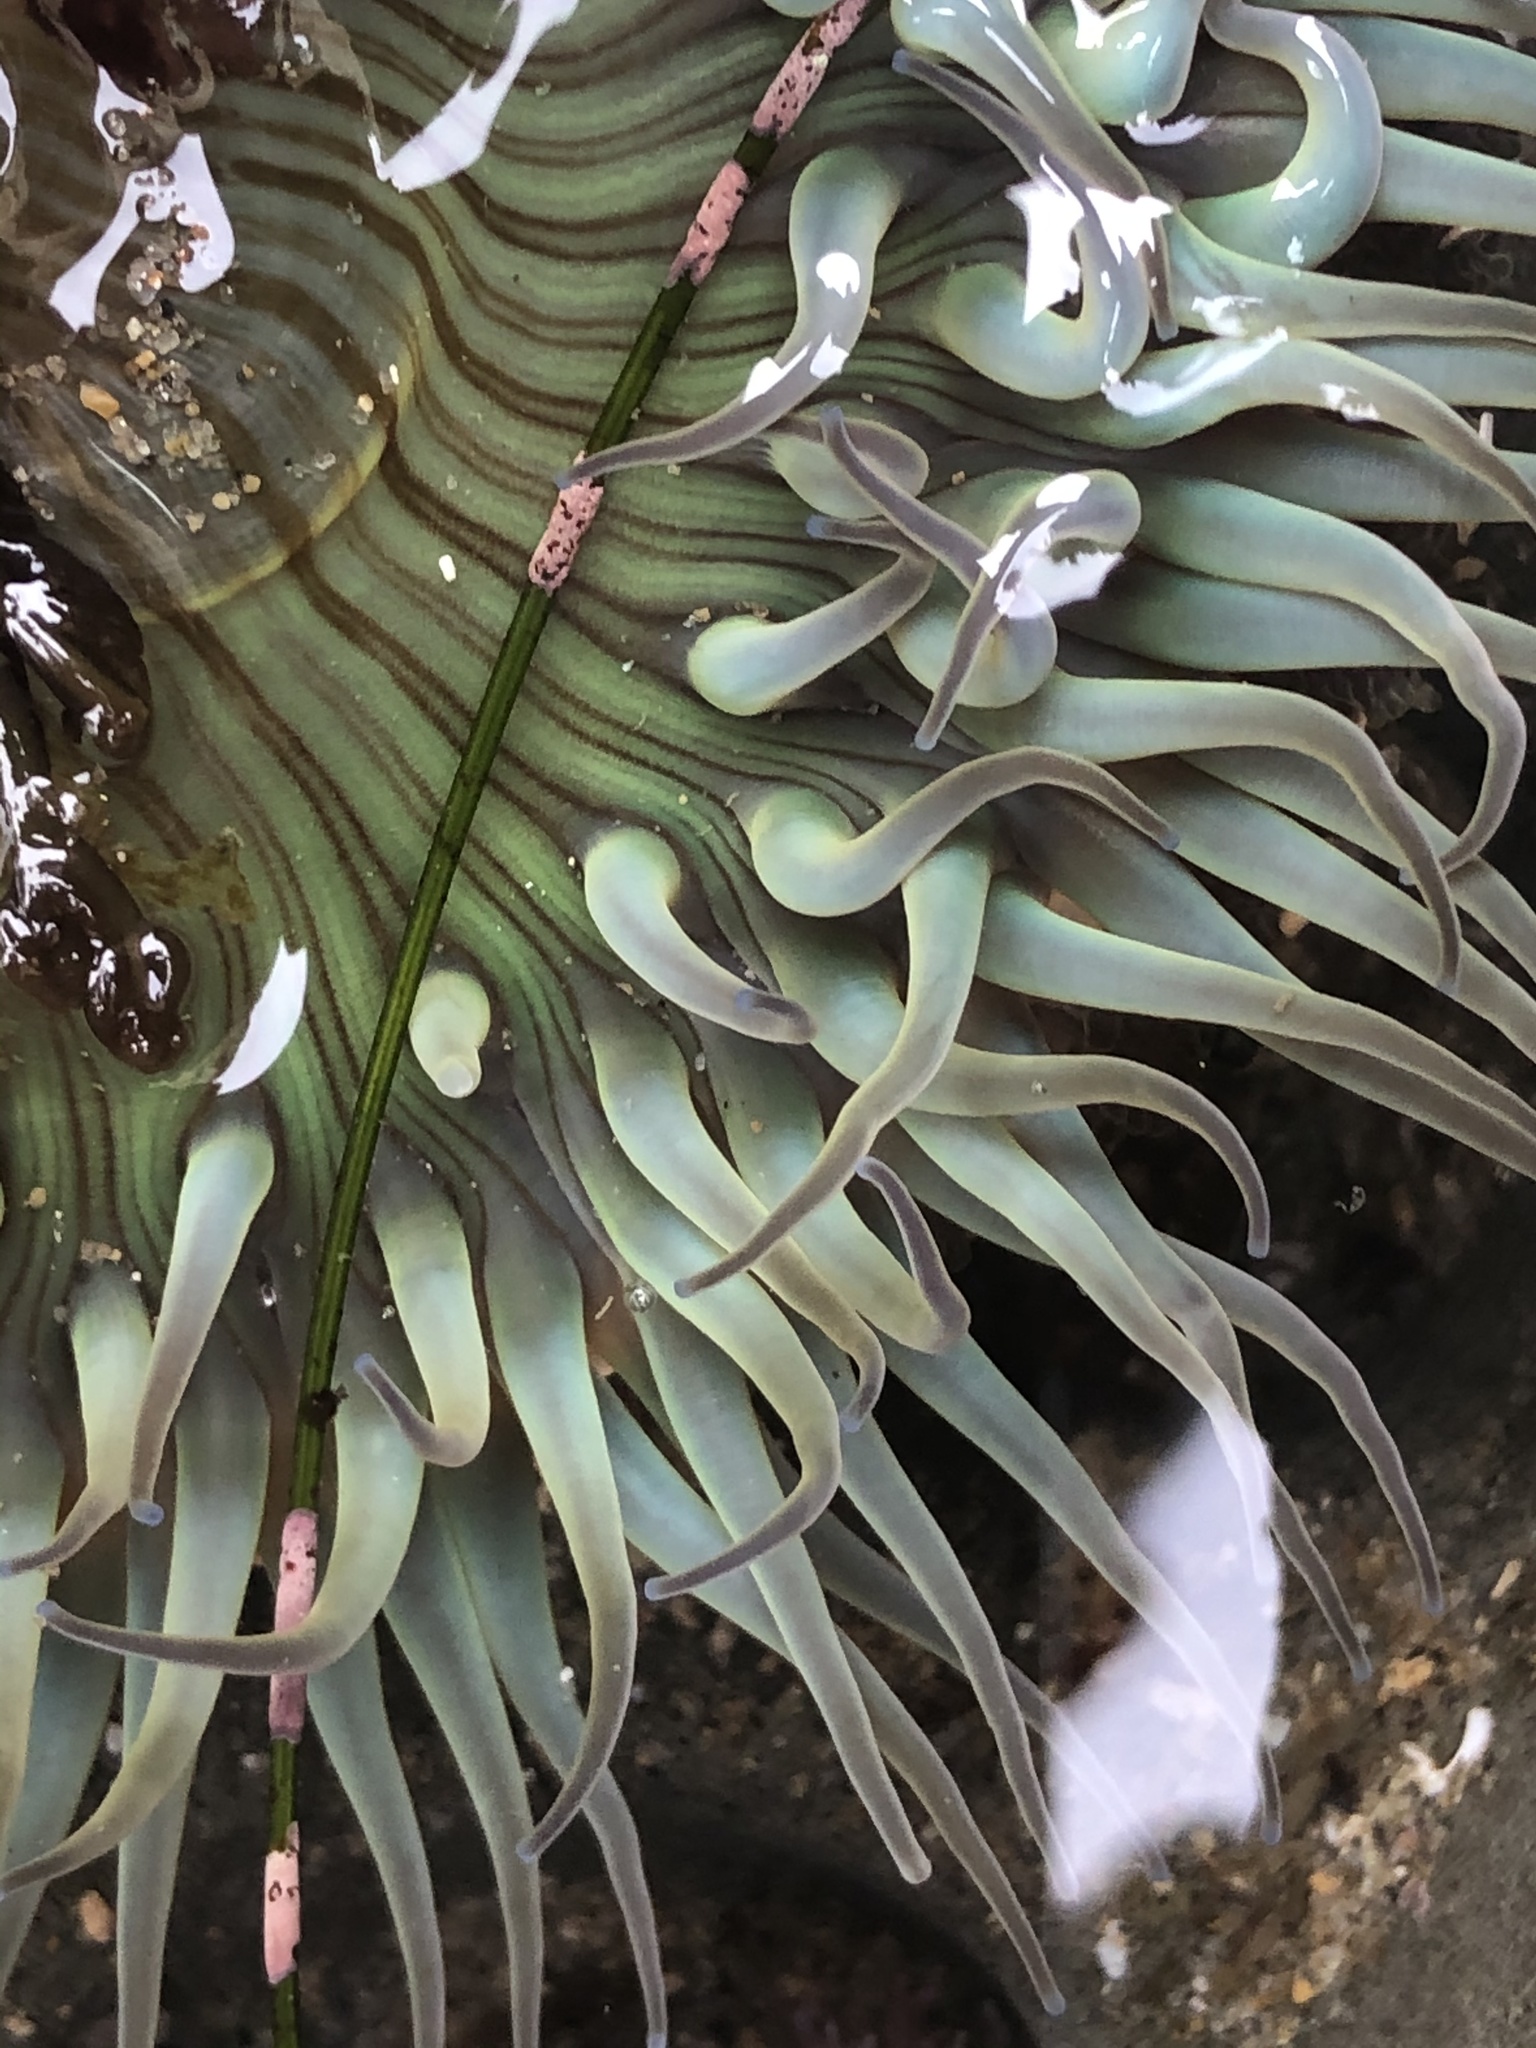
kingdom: Animalia
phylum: Cnidaria
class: Anthozoa
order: Actiniaria
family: Actiniidae
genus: Anthopleura
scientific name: Anthopleura sola
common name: Sun anemone
